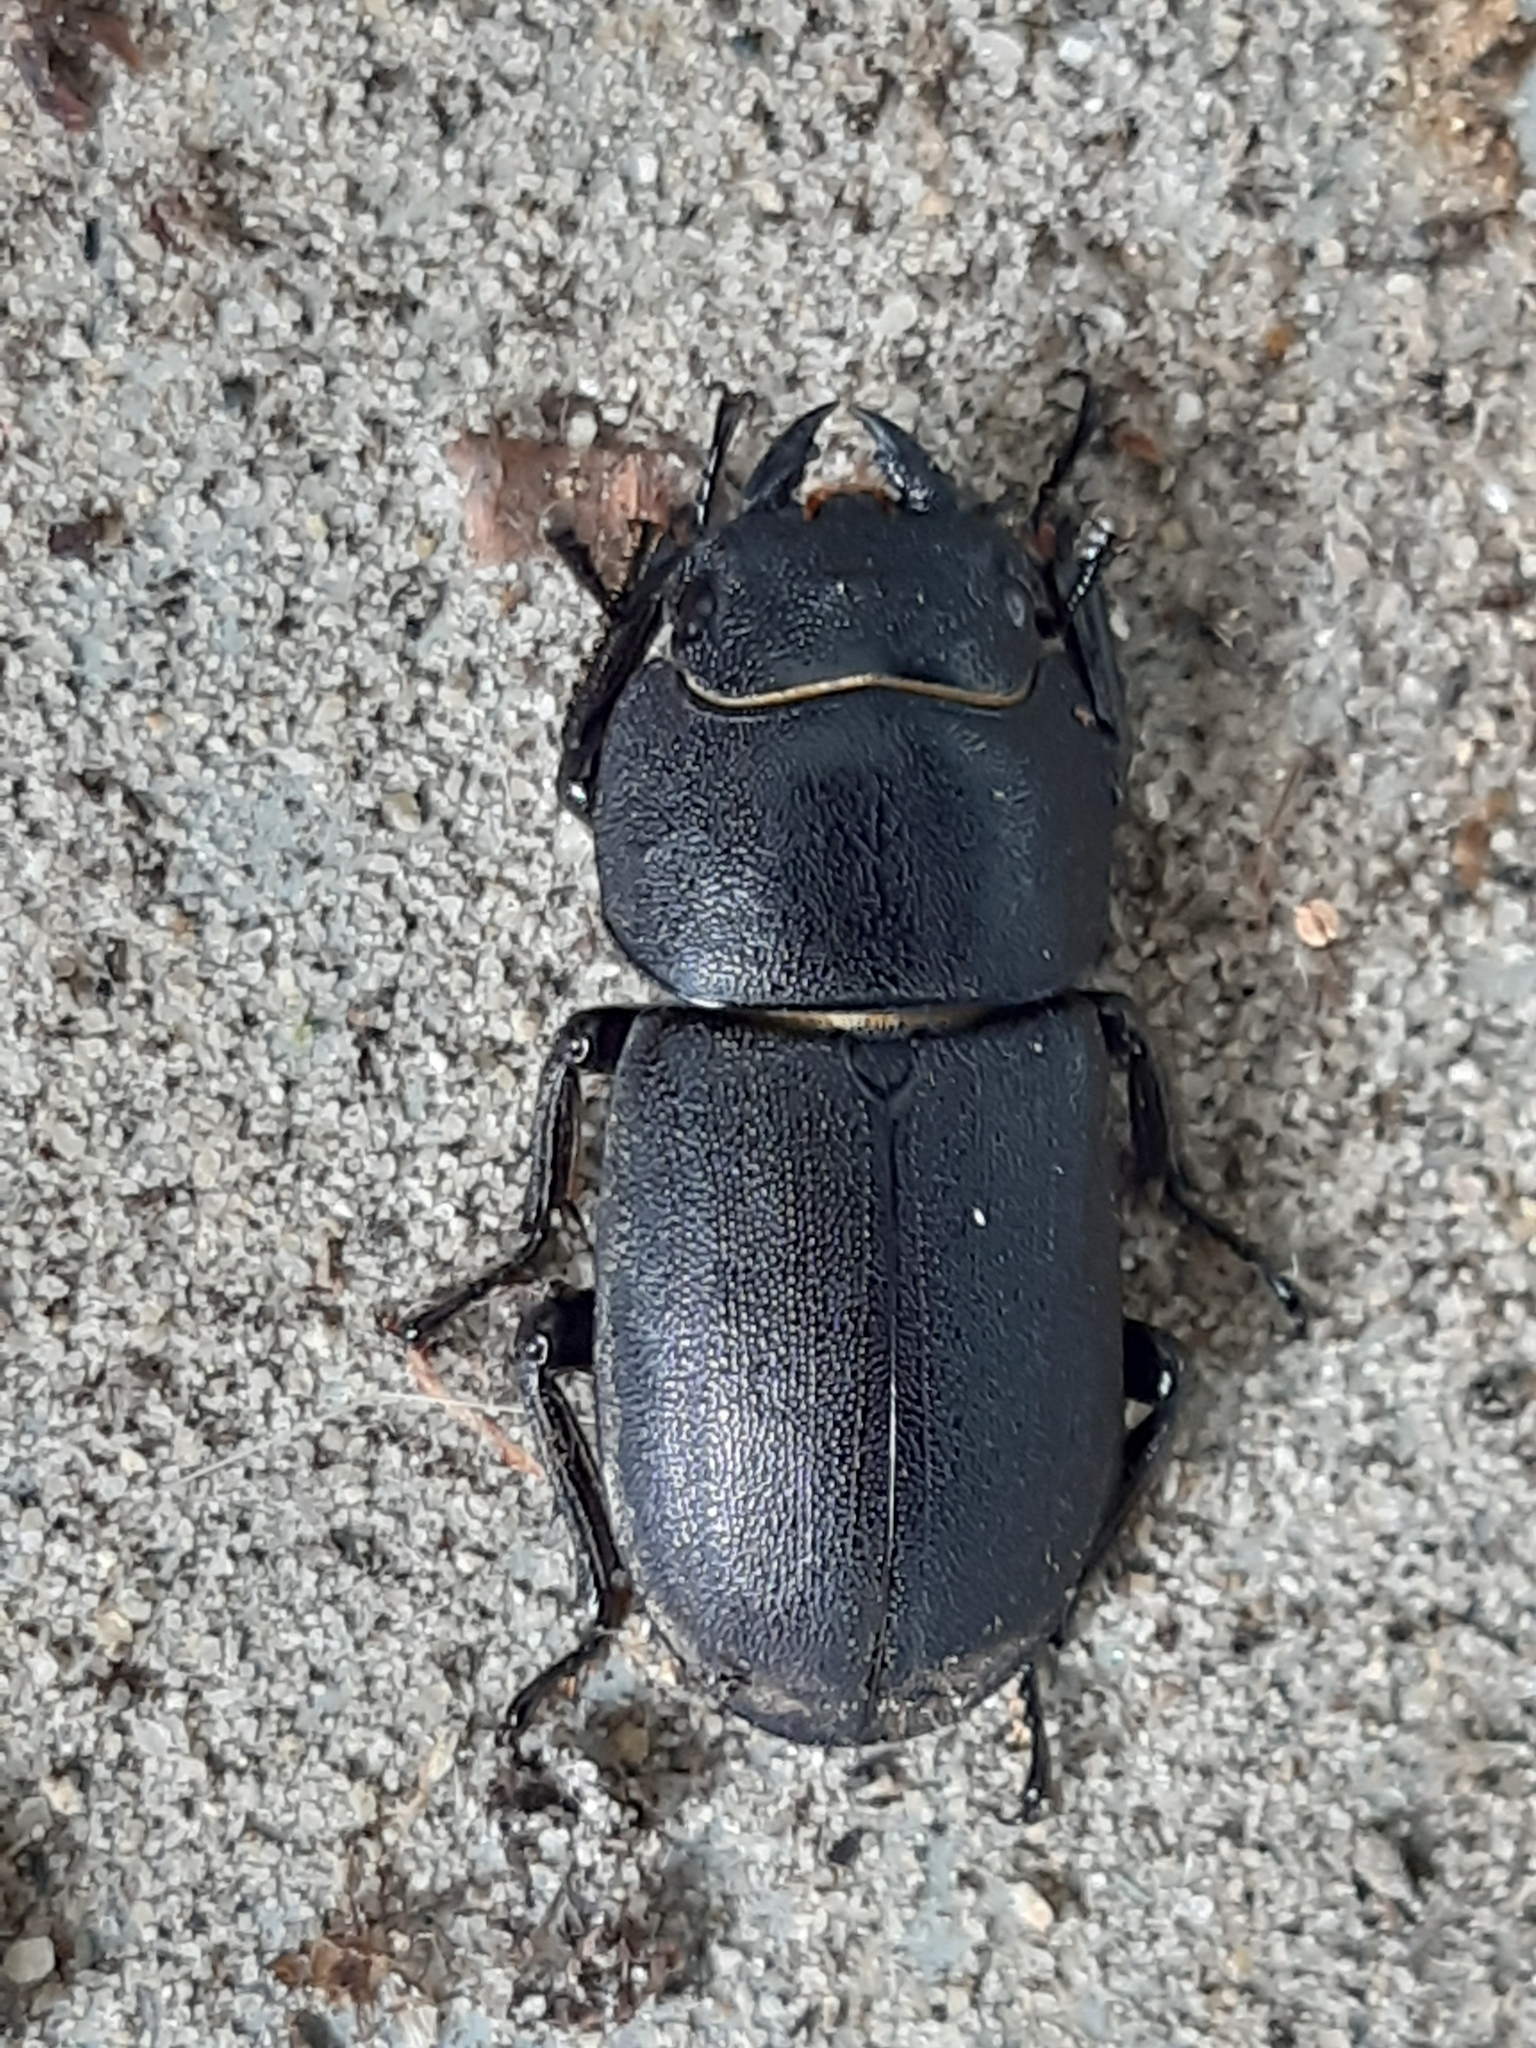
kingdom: Animalia
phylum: Arthropoda
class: Insecta
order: Coleoptera
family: Lucanidae
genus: Dorcus
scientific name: Dorcus parallelipipedus
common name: Lesser stag beetle
